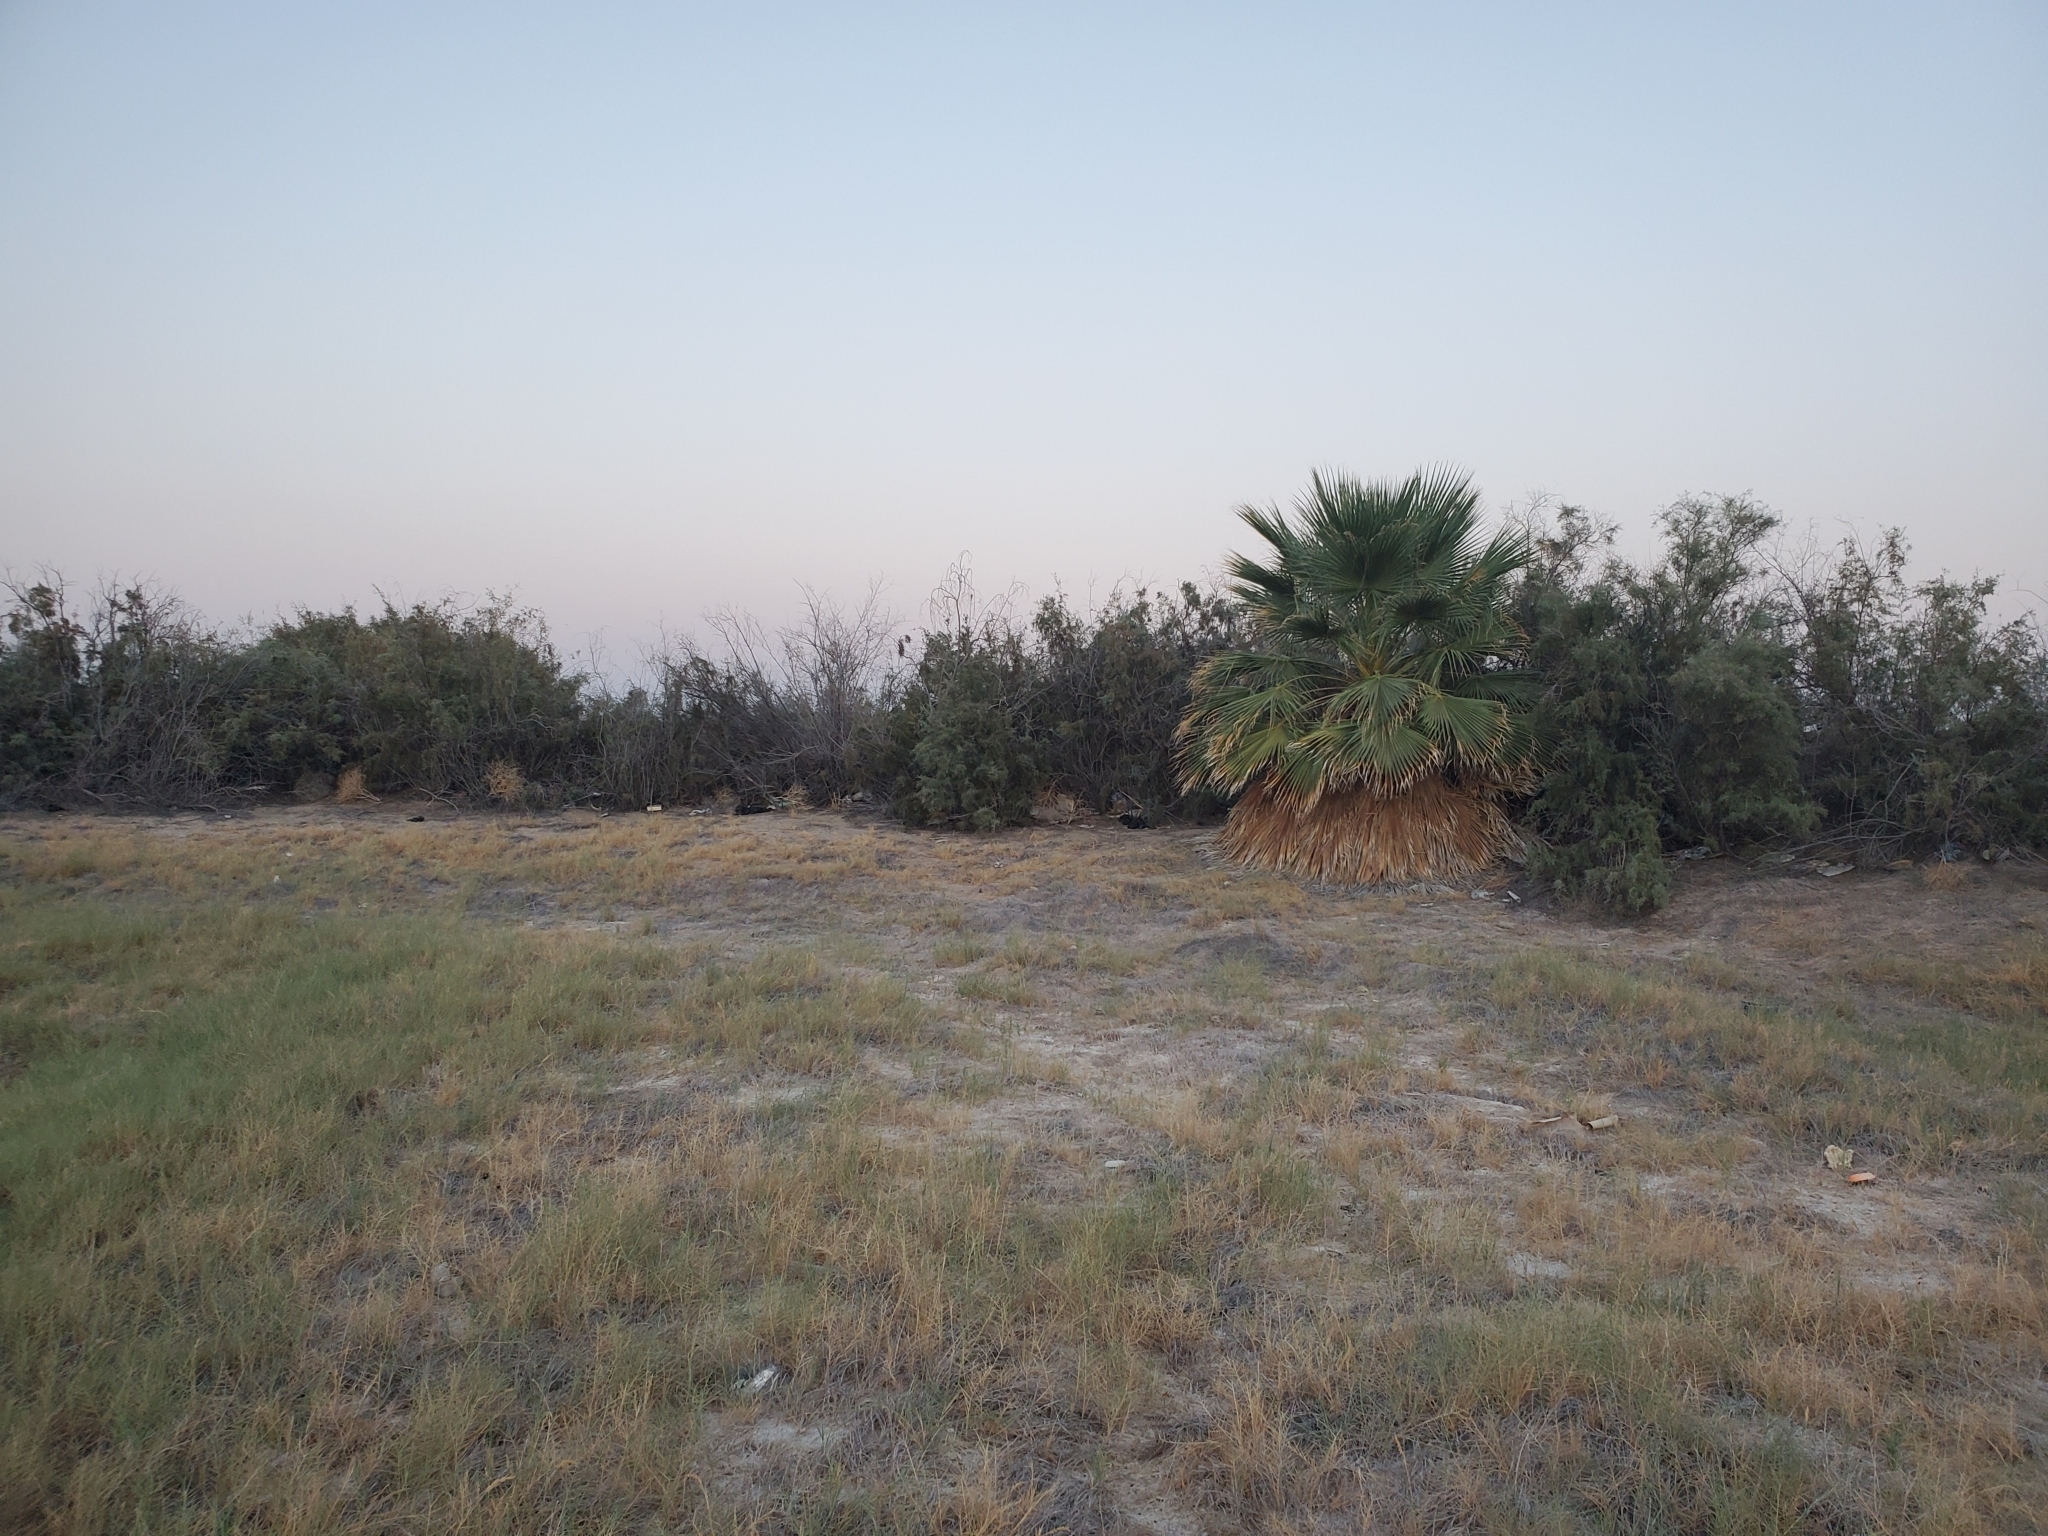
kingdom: Plantae
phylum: Tracheophyta
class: Liliopsida
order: Poales
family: Poaceae
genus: Distichlis
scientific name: Distichlis spicata
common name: Saltgrass
